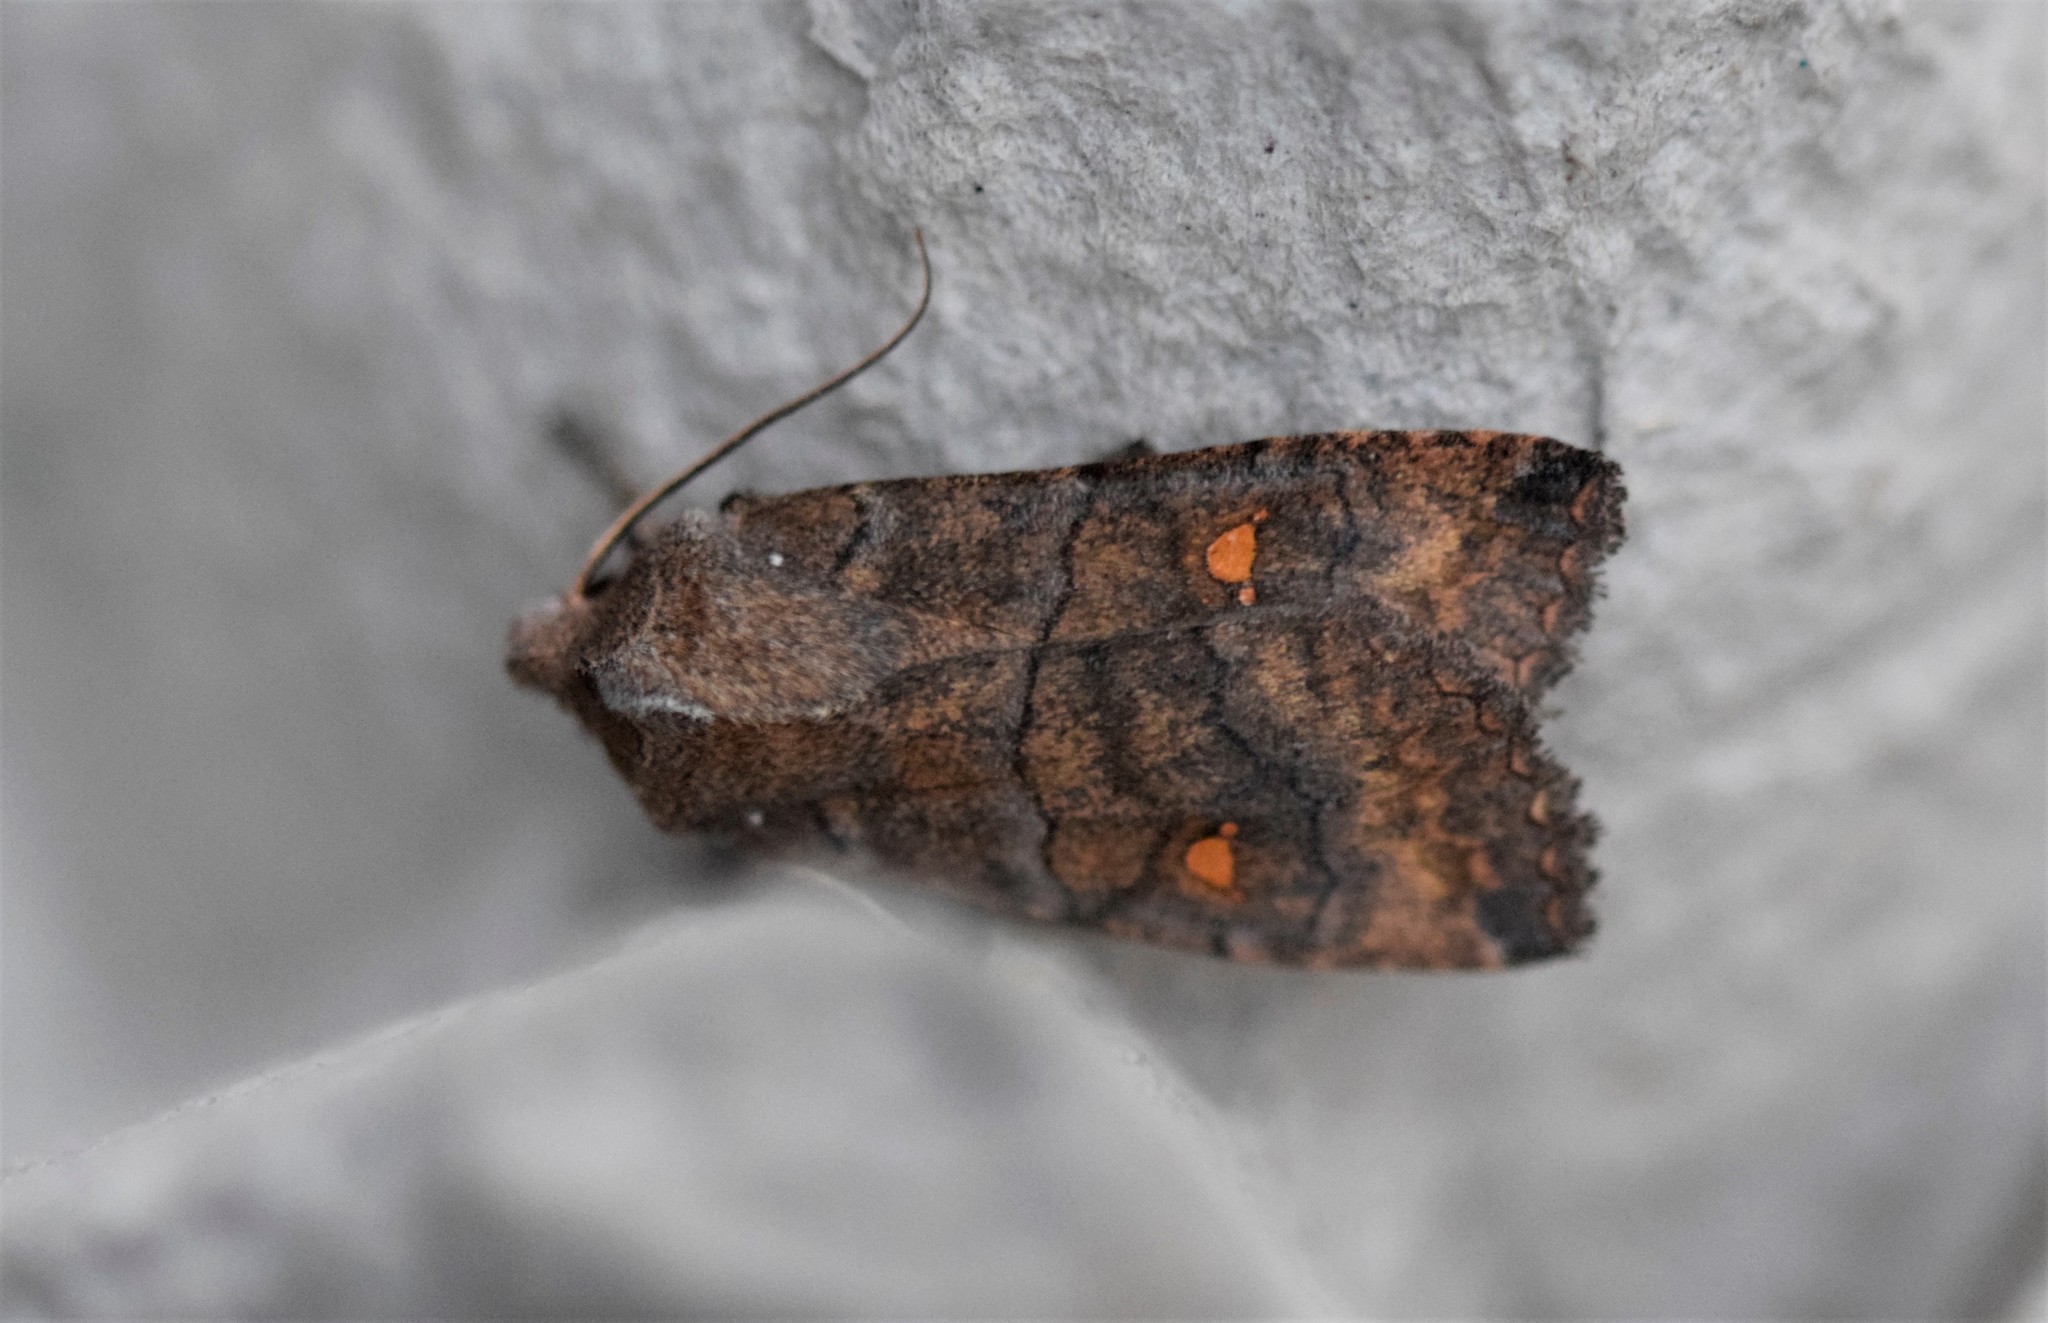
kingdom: Animalia
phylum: Arthropoda
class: Insecta
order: Lepidoptera
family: Noctuidae
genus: Eupsilia
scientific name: Eupsilia transversa
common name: Satellite
